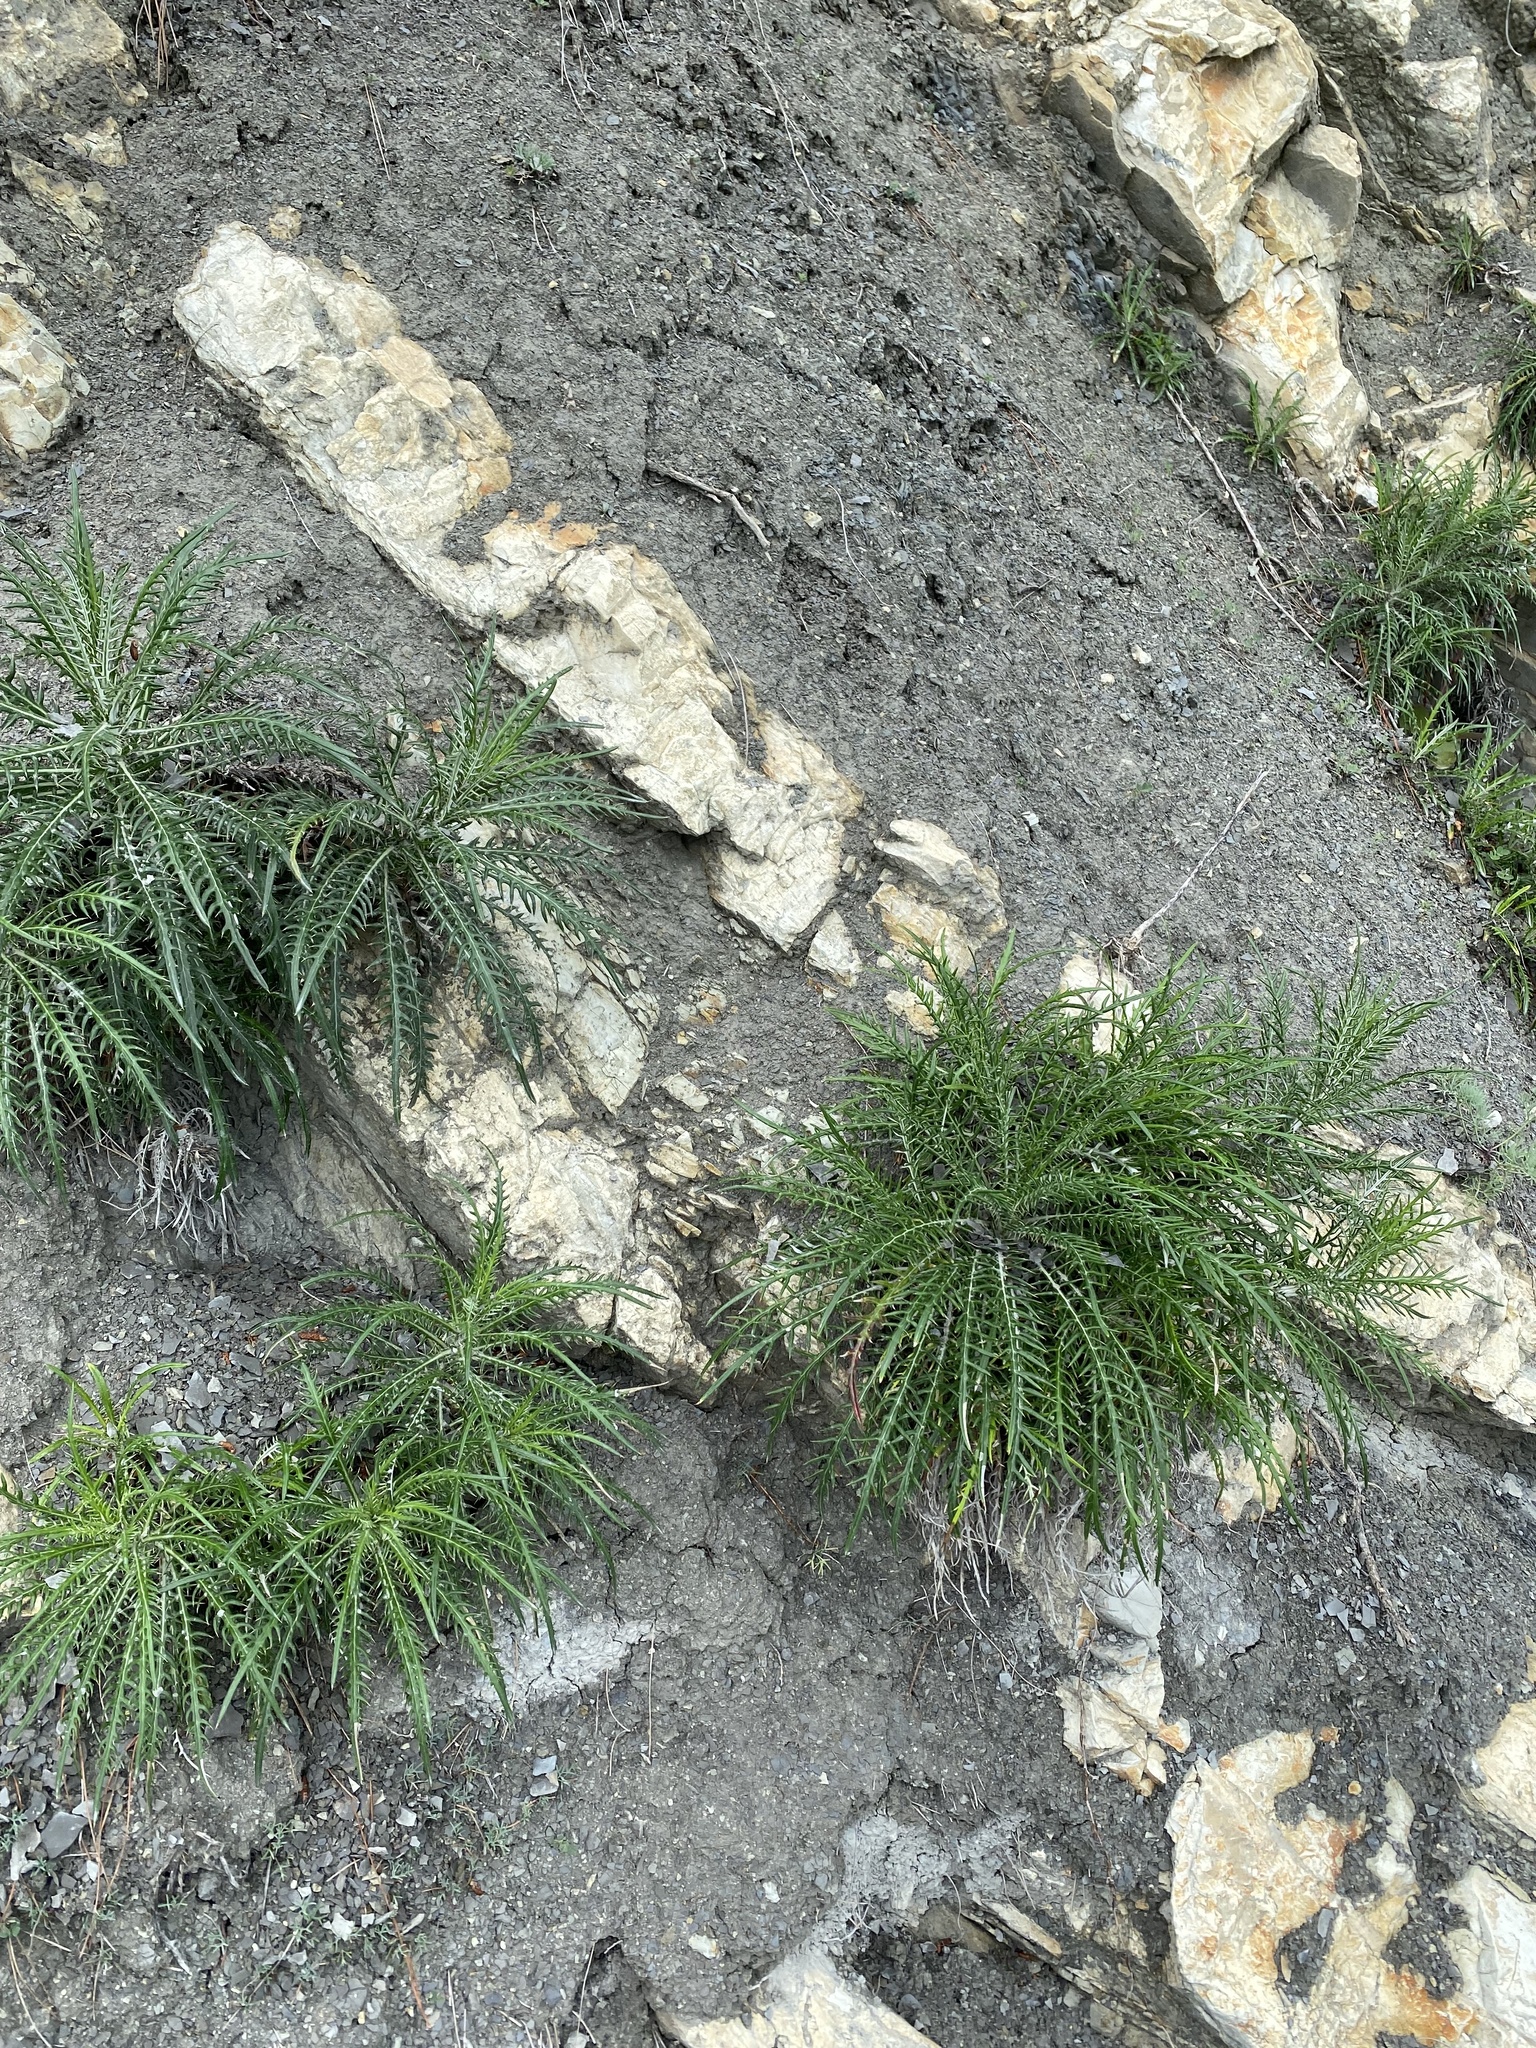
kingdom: Plantae
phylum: Tracheophyta
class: Magnoliopsida
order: Asterales
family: Asteraceae
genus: Ptilostemon
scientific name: Ptilostemon echinocephalus
